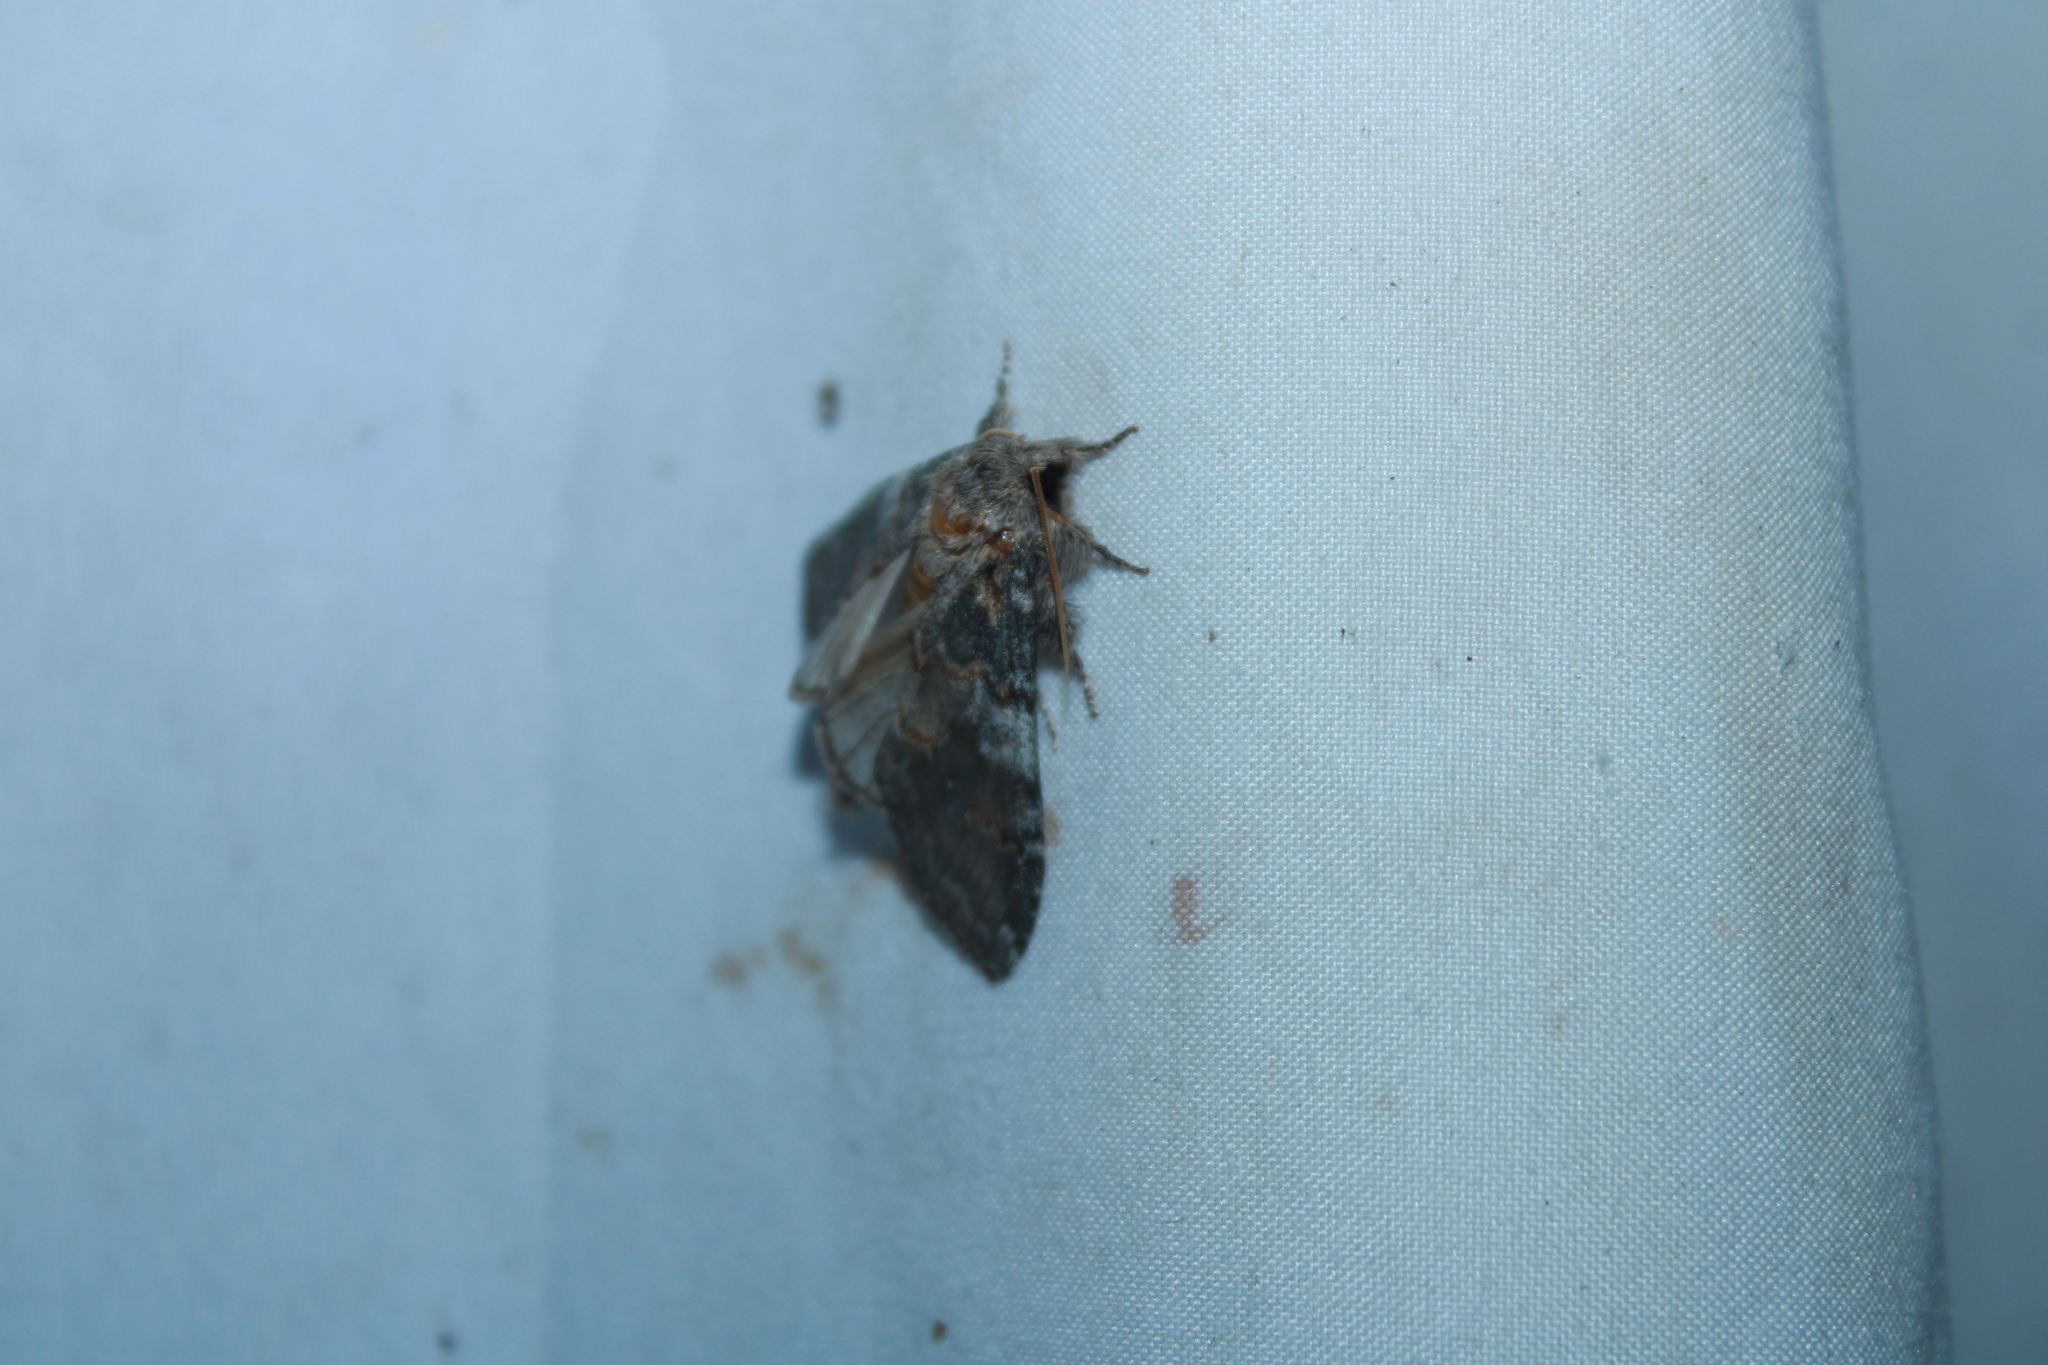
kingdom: Animalia
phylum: Arthropoda
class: Insecta
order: Lepidoptera
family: Notodontidae
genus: Peridea
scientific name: Peridea angulosa
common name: Angulose prominent
